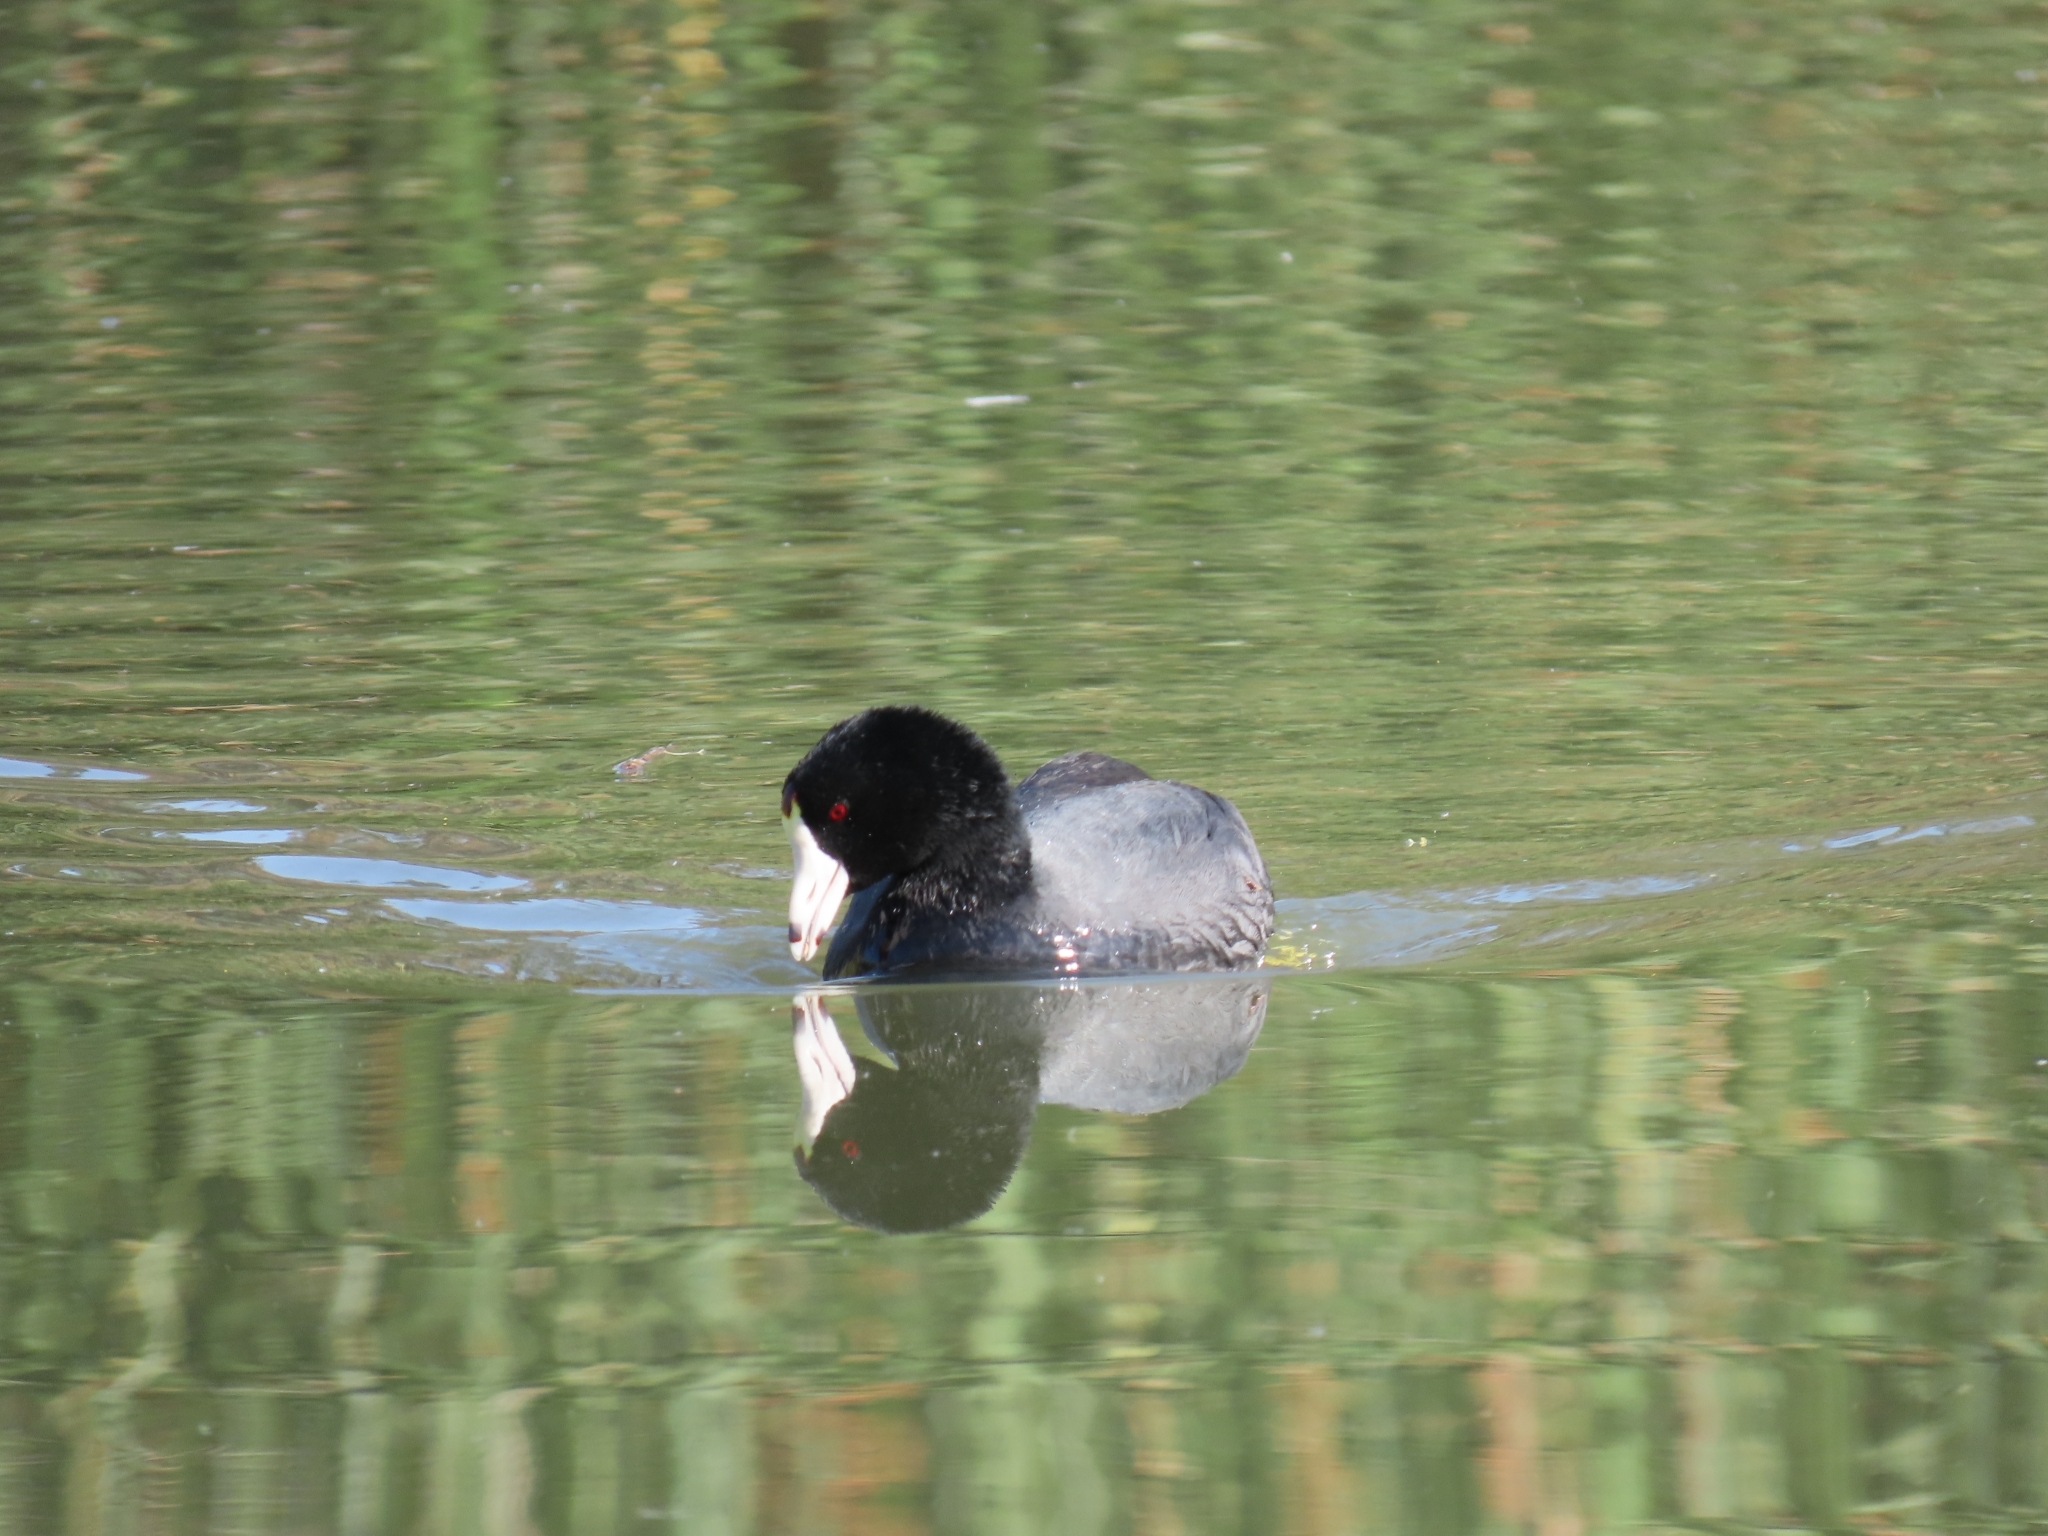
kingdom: Animalia
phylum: Chordata
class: Aves
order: Gruiformes
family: Rallidae
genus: Fulica
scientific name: Fulica americana
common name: American coot
